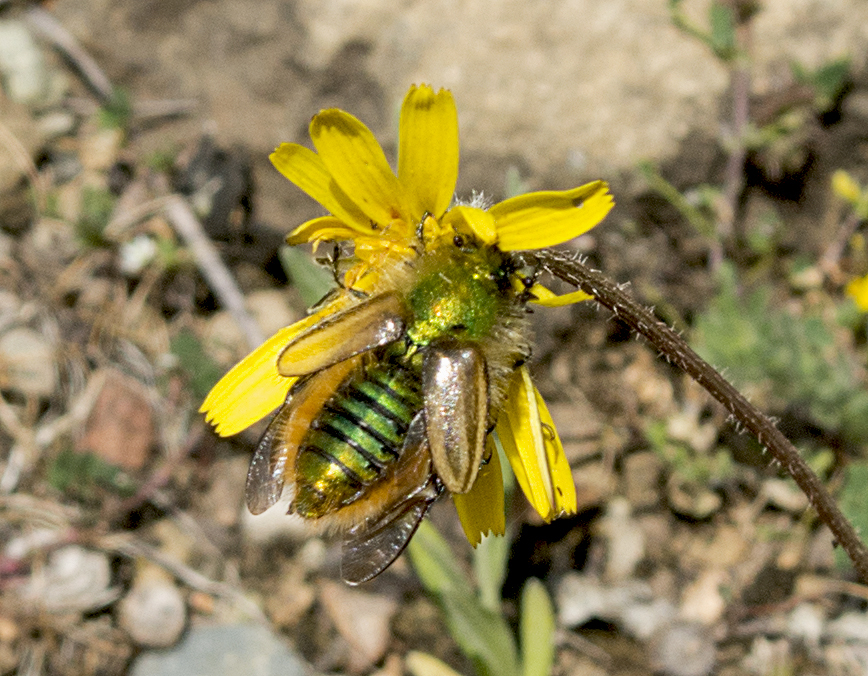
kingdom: Animalia
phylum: Arthropoda
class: Insecta
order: Coleoptera
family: Glaphyridae
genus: Eulasia
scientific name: Eulasia pareyssei
